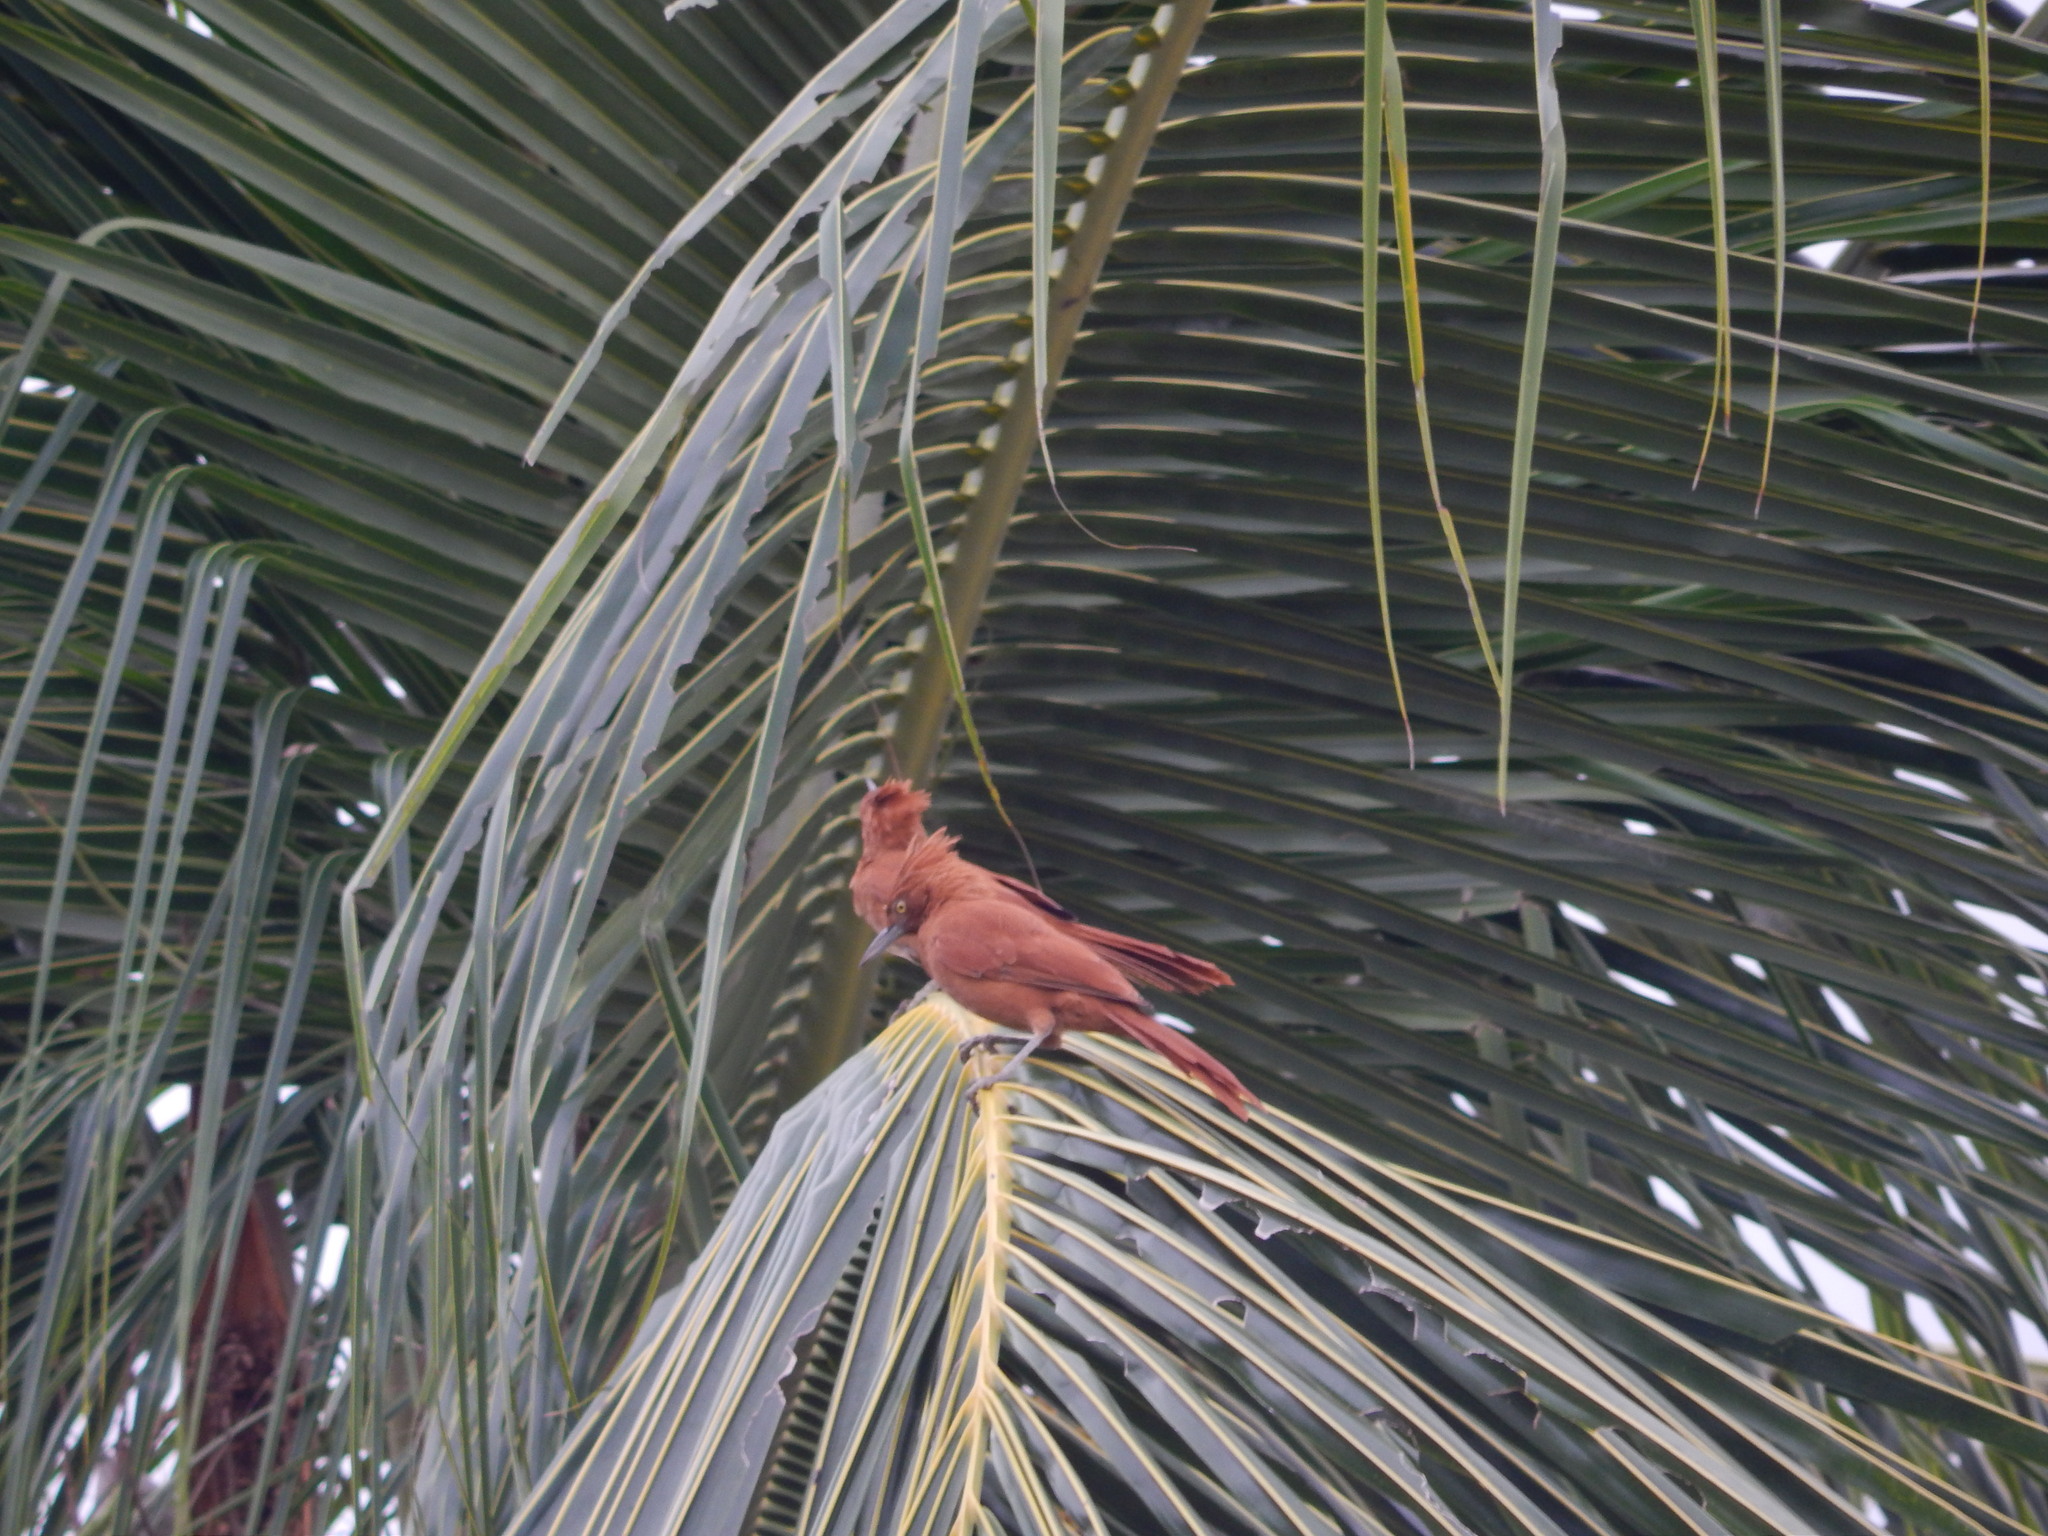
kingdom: Animalia
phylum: Chordata
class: Aves
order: Passeriformes
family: Furnariidae
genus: Pseudoseisura
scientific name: Pseudoseisura cristata
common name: Caatinga cacholote
